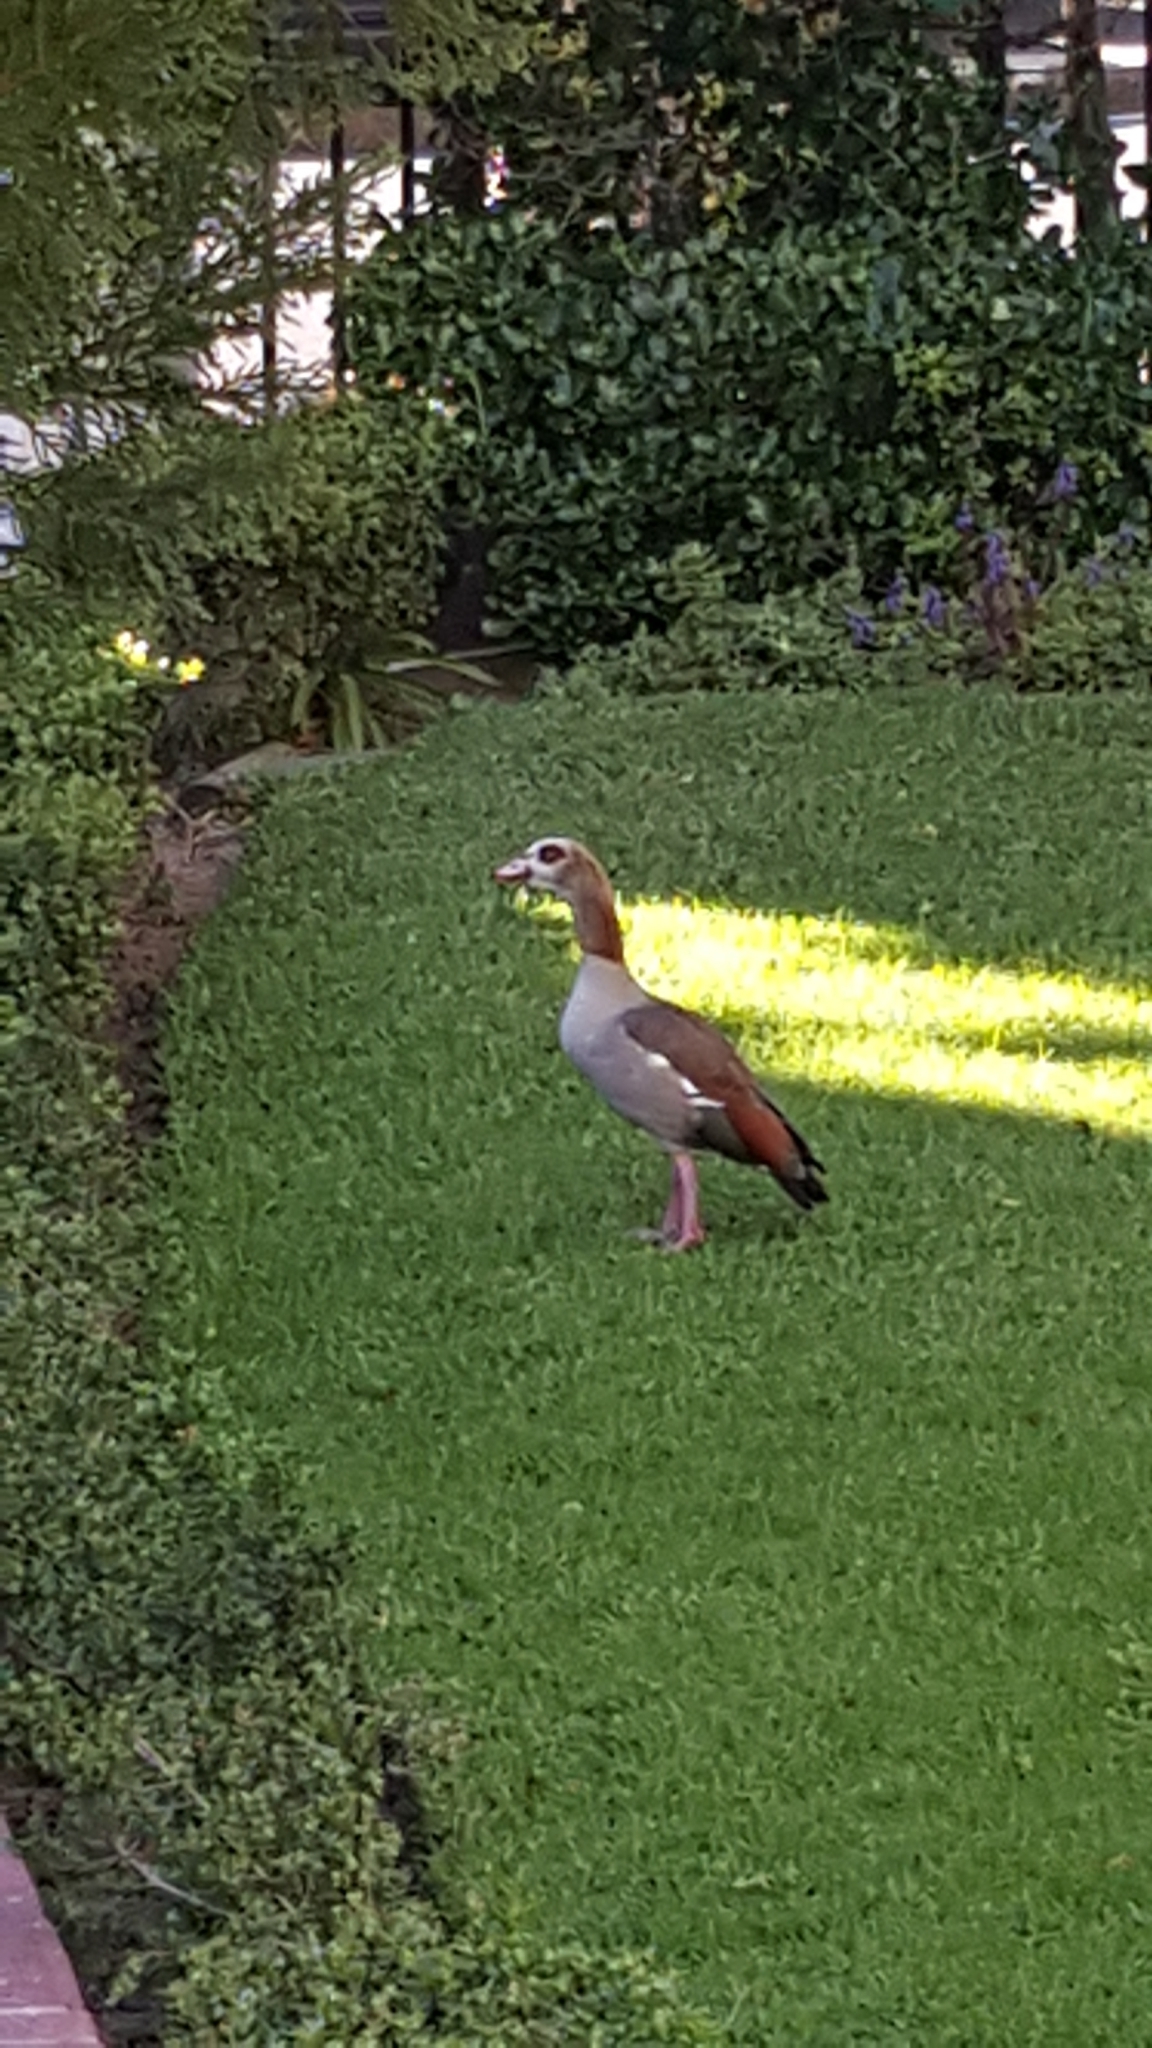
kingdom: Animalia
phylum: Chordata
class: Aves
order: Anseriformes
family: Anatidae
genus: Alopochen
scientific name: Alopochen aegyptiaca
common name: Egyptian goose
